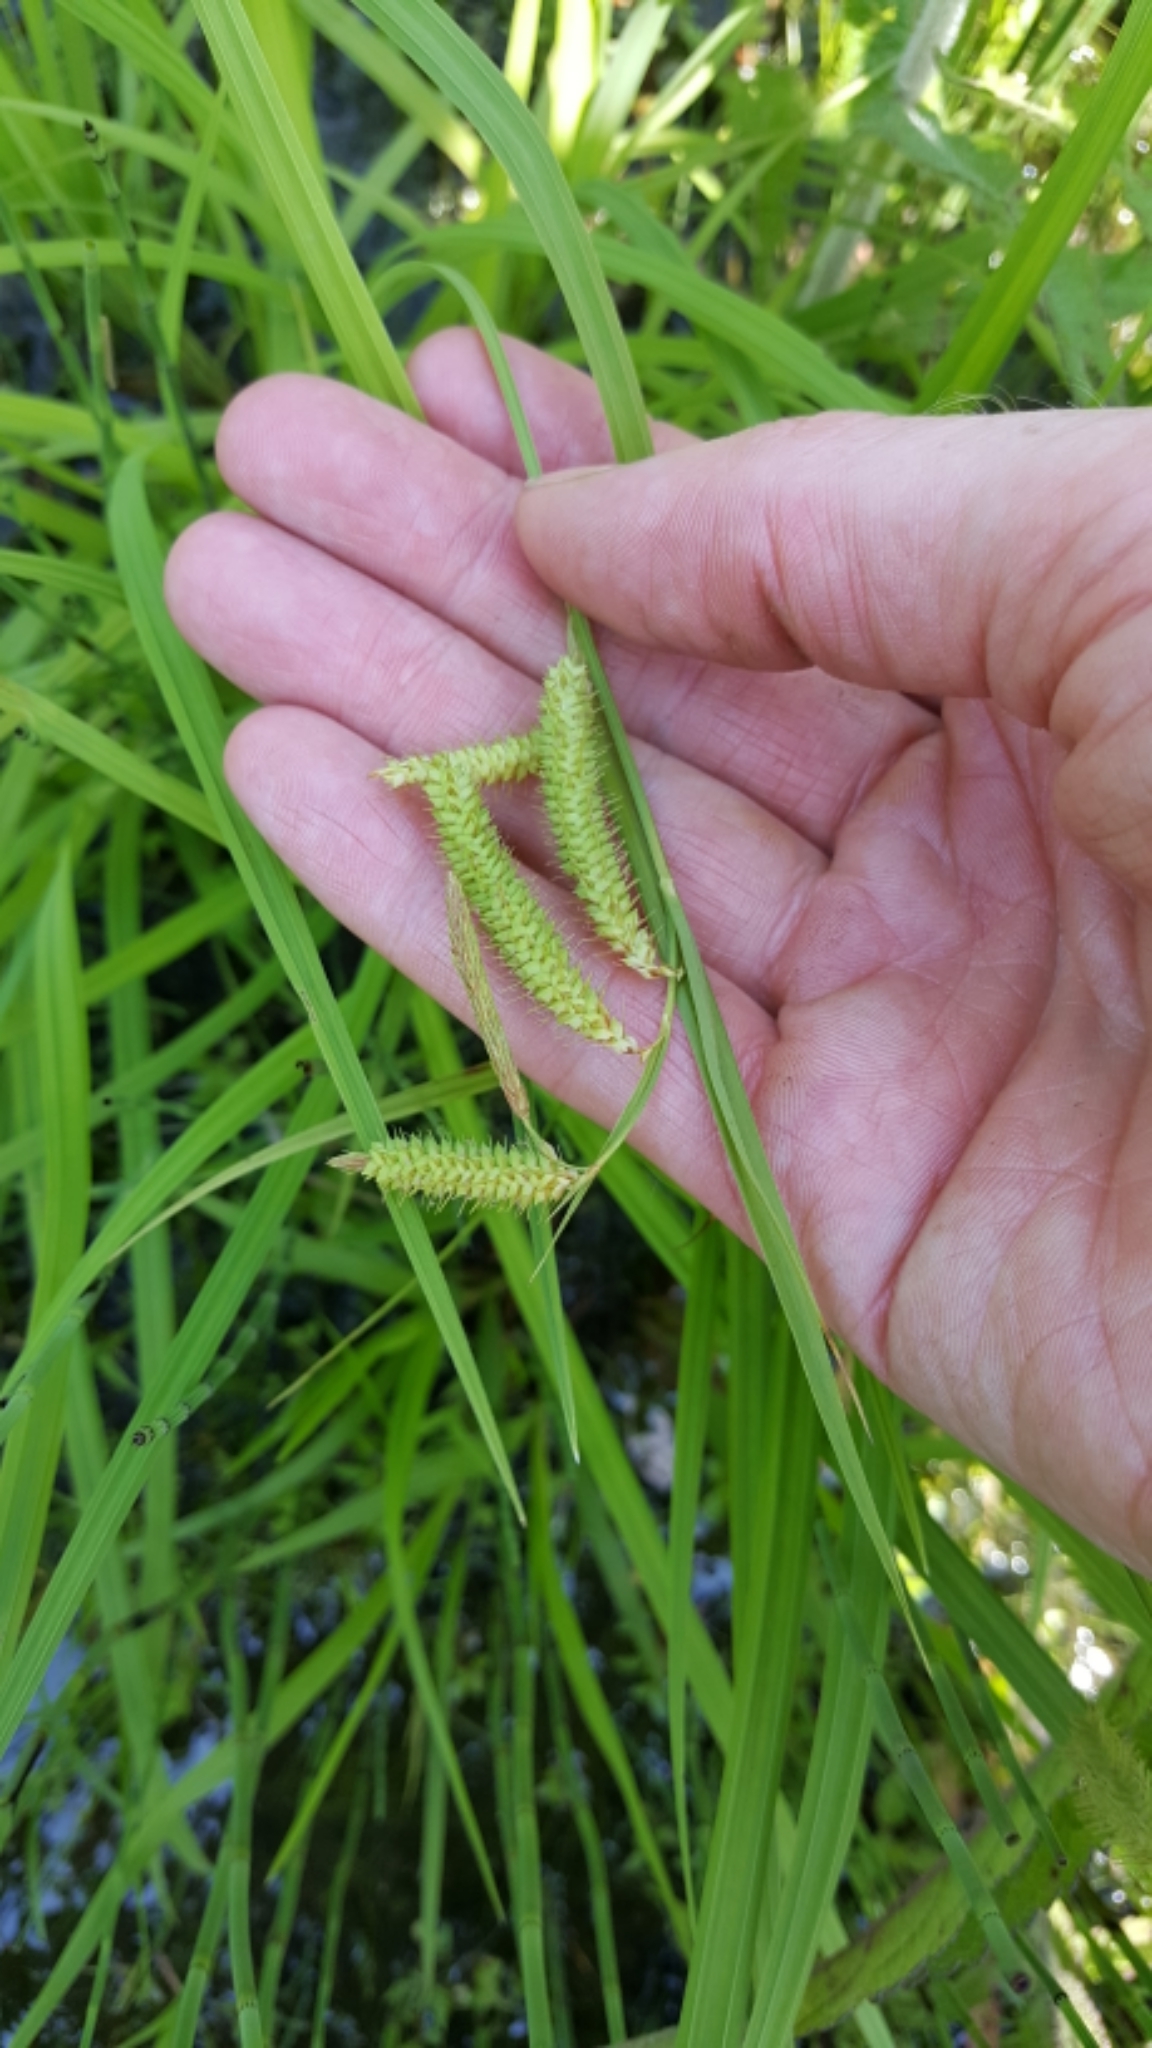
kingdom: Plantae
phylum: Tracheophyta
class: Liliopsida
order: Poales
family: Cyperaceae
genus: Carex
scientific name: Carex
